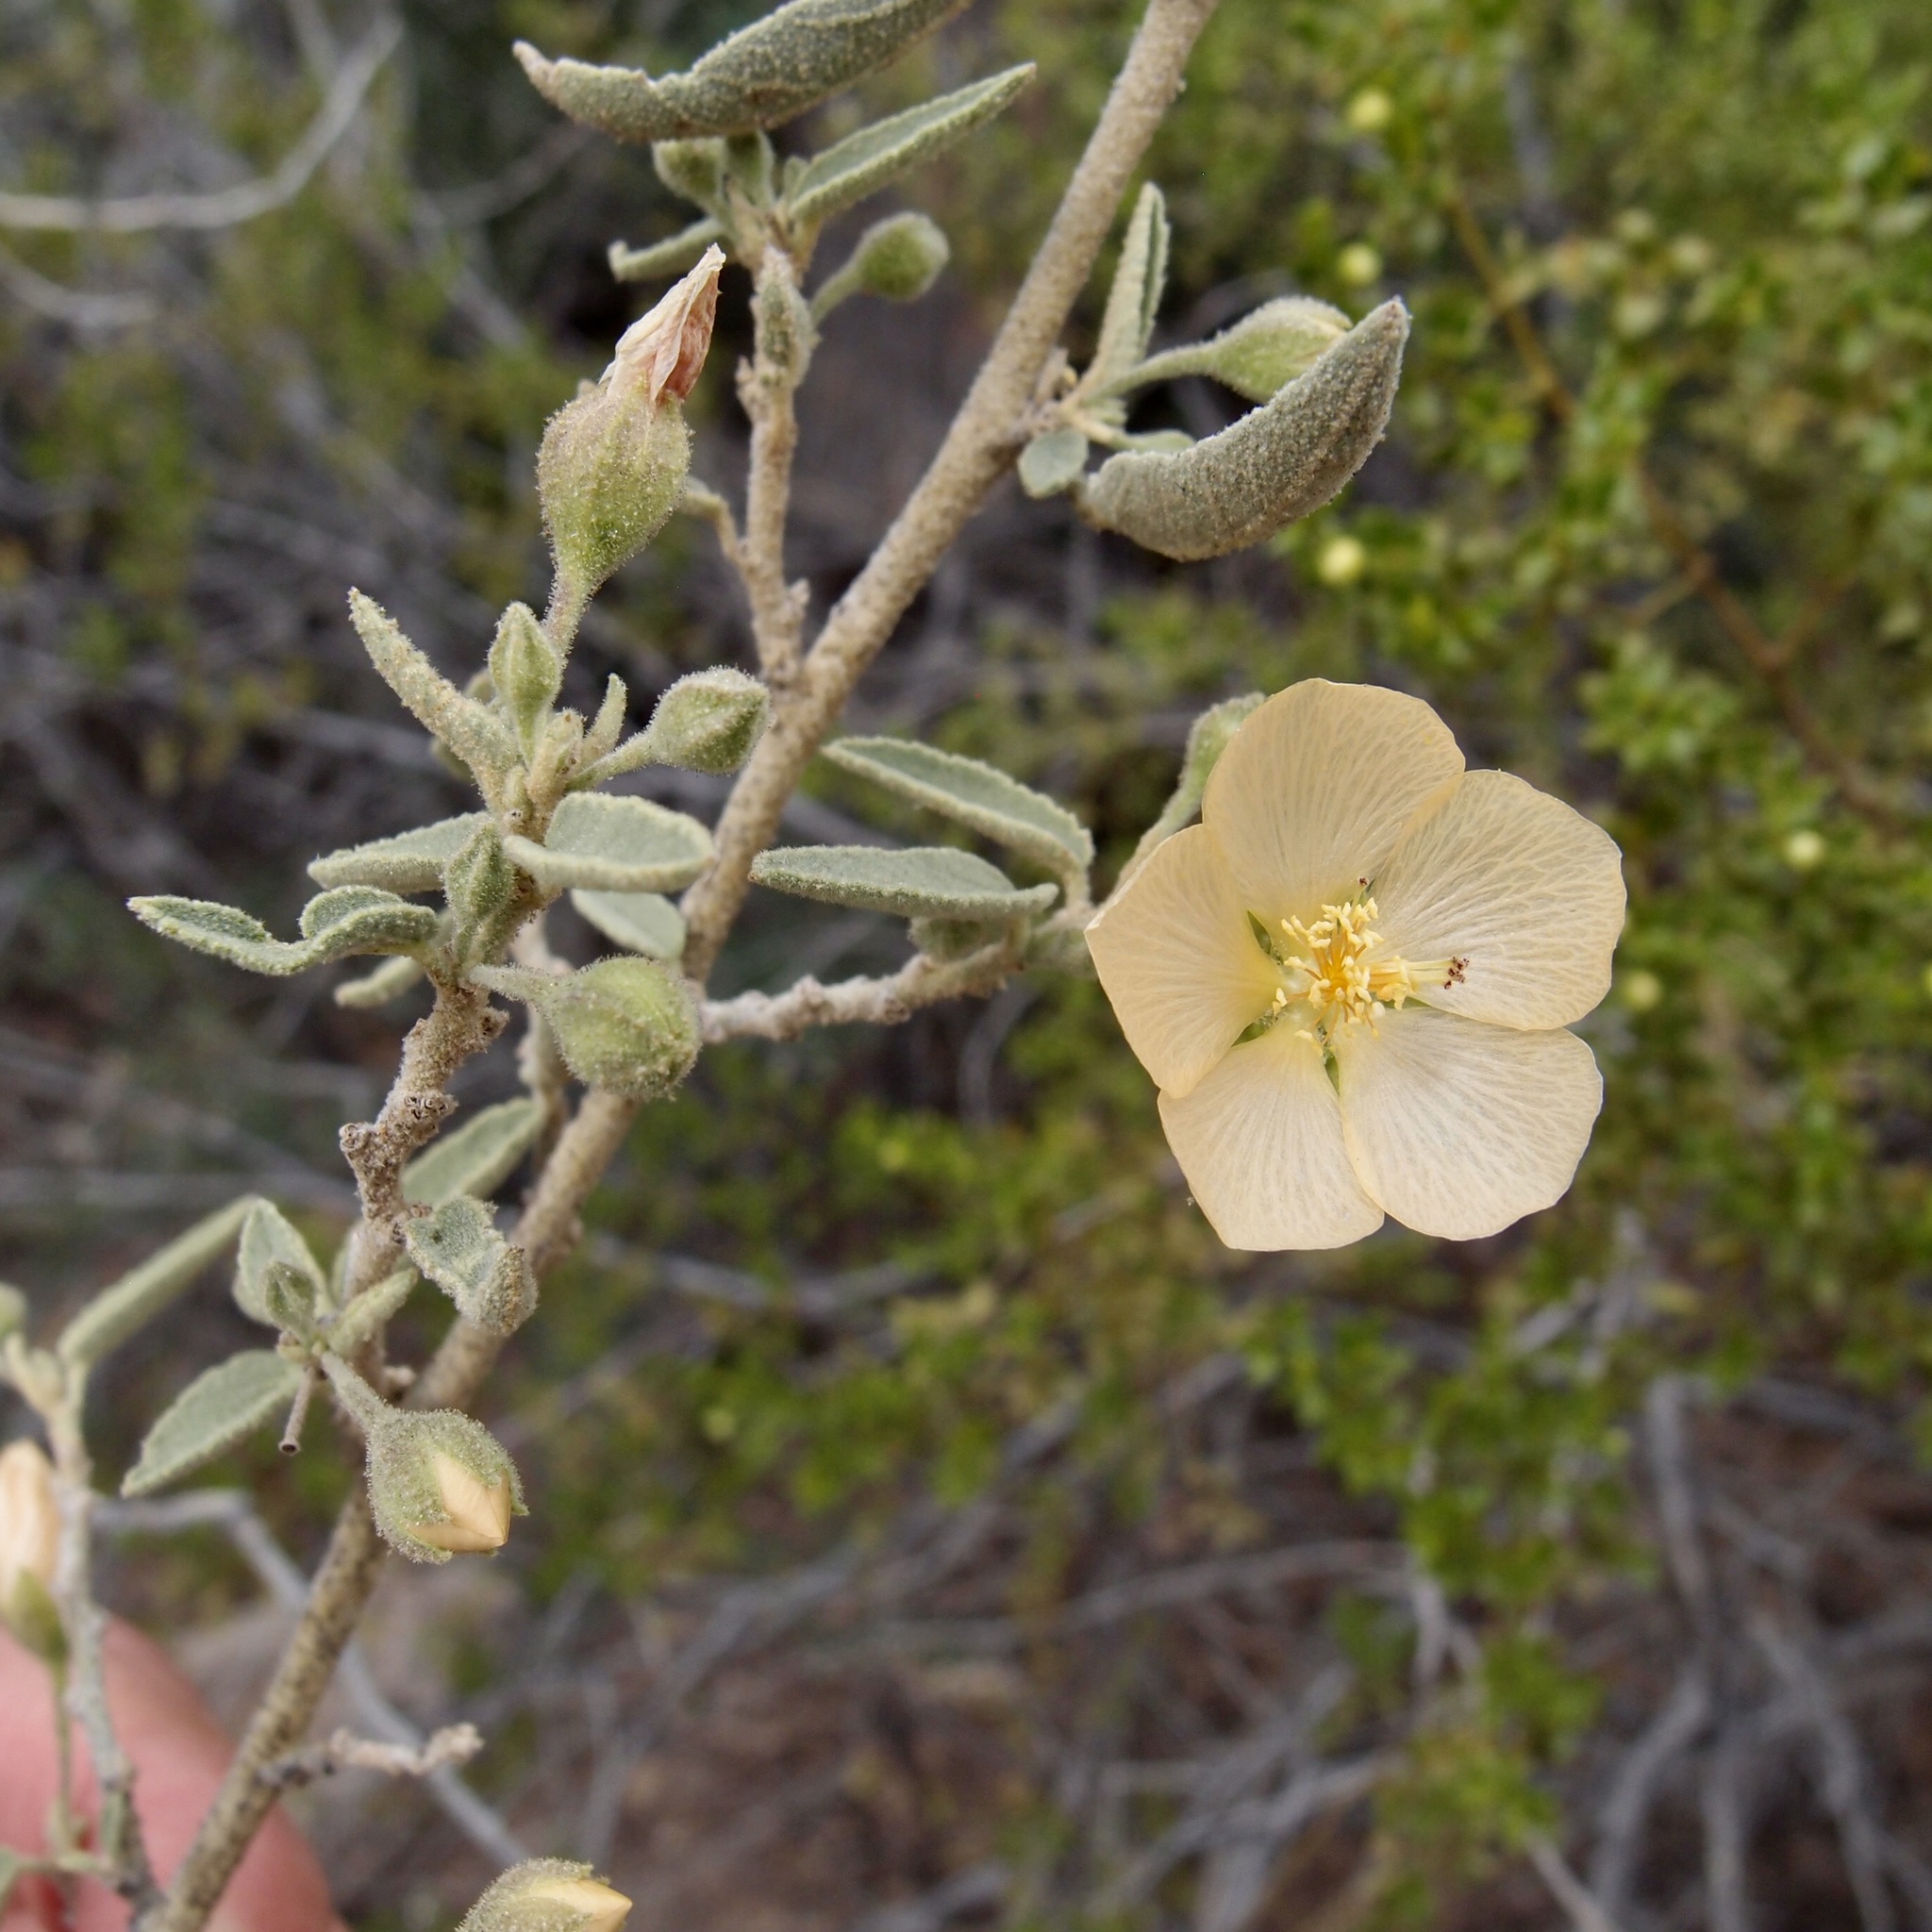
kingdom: Plantae
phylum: Tracheophyta
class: Magnoliopsida
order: Malvales
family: Malvaceae
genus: Horsfordia
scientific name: Horsfordia newberryi
